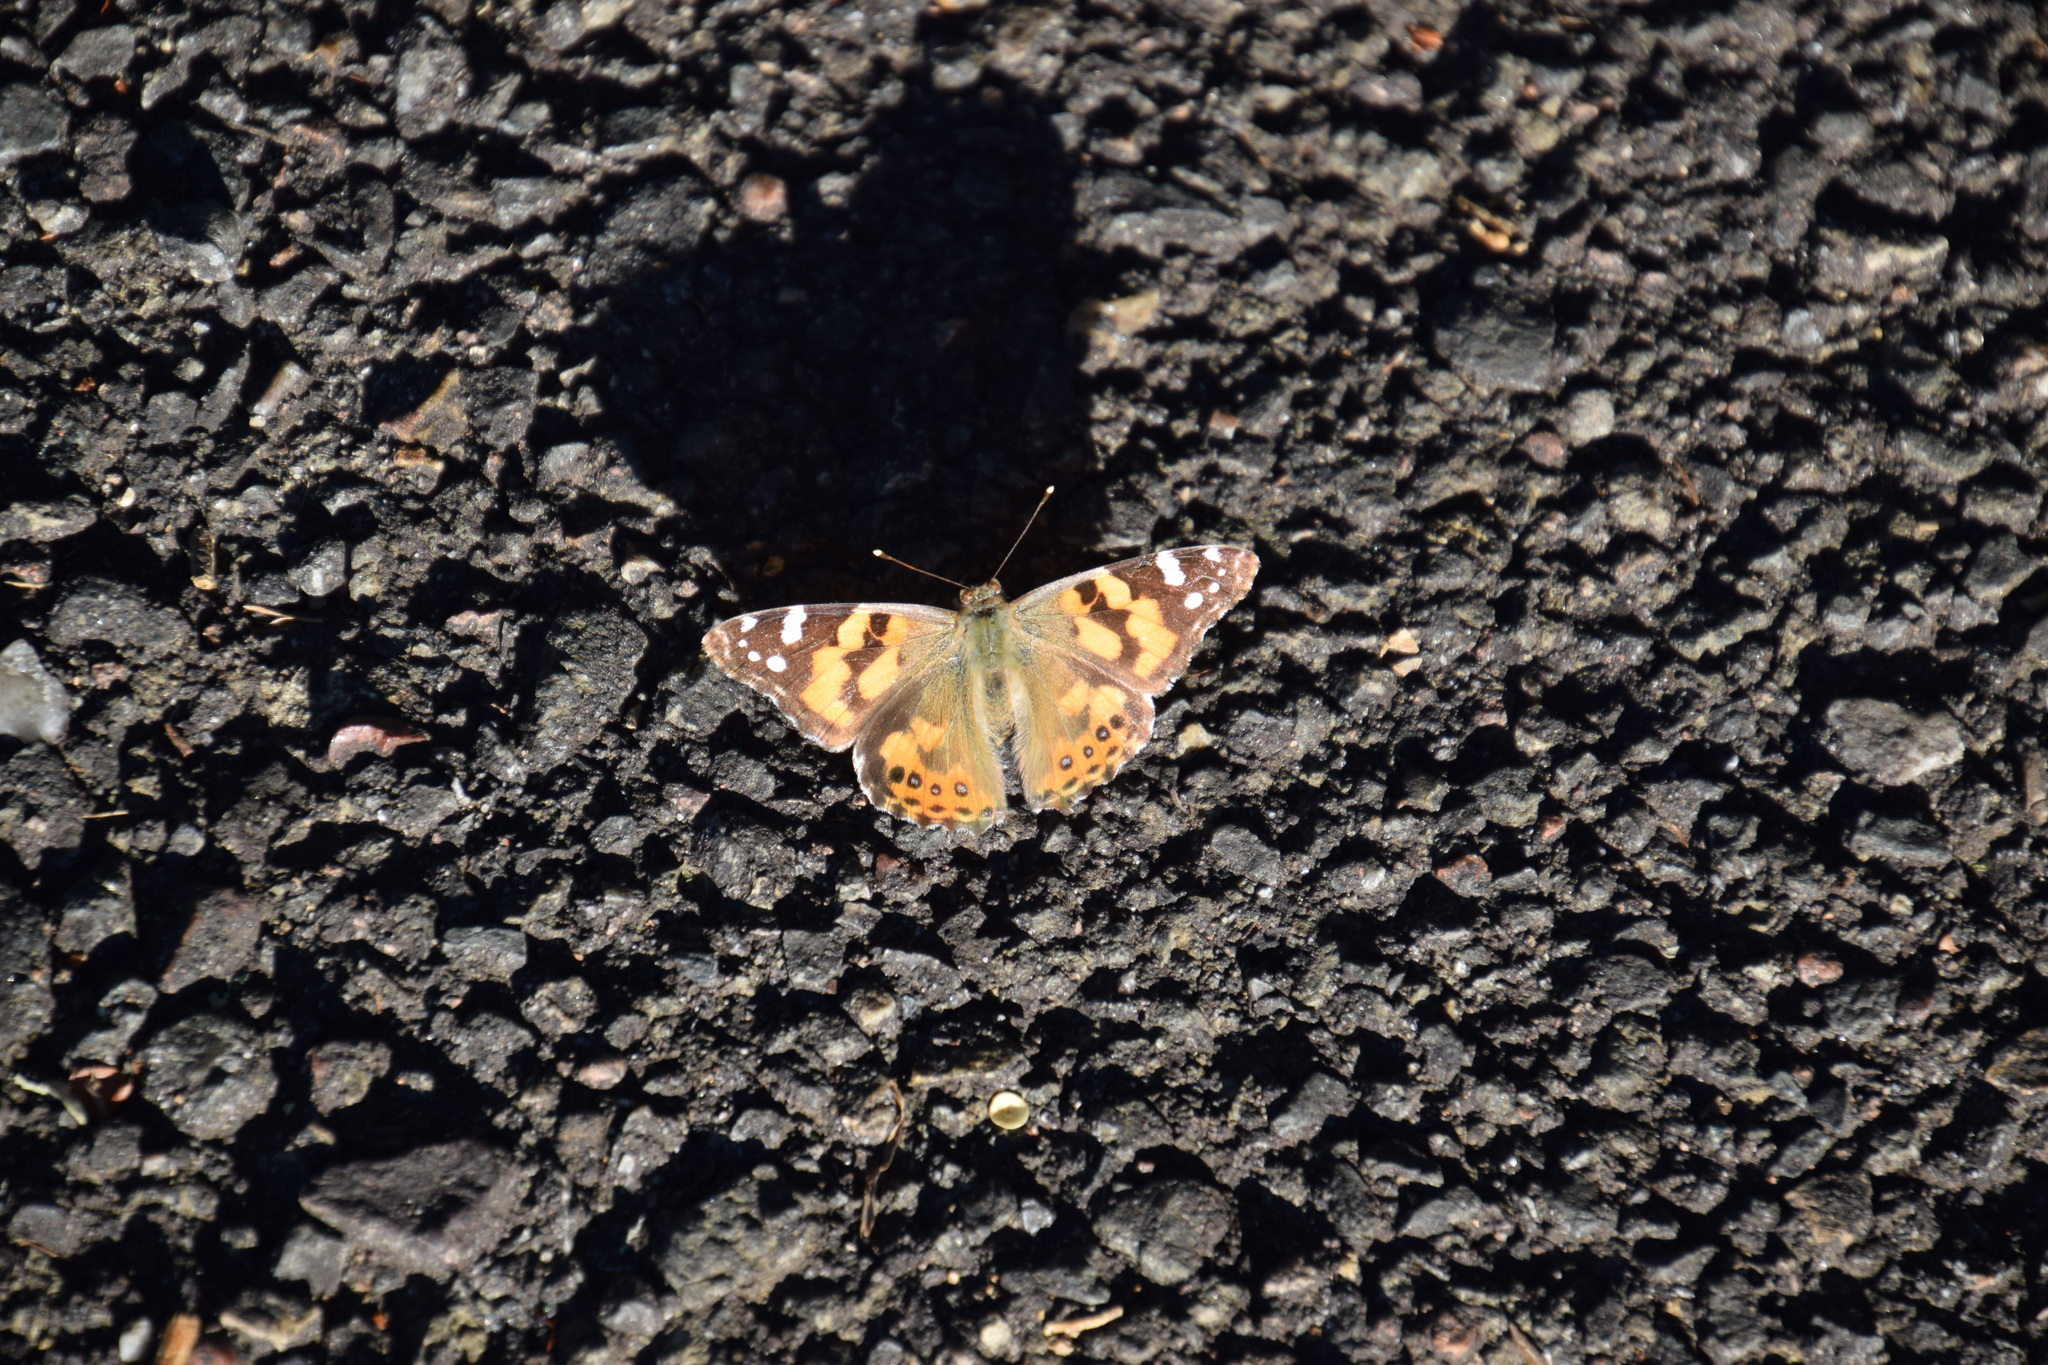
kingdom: Animalia
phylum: Arthropoda
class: Insecta
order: Lepidoptera
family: Nymphalidae
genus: Vanessa
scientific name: Vanessa kershawi
